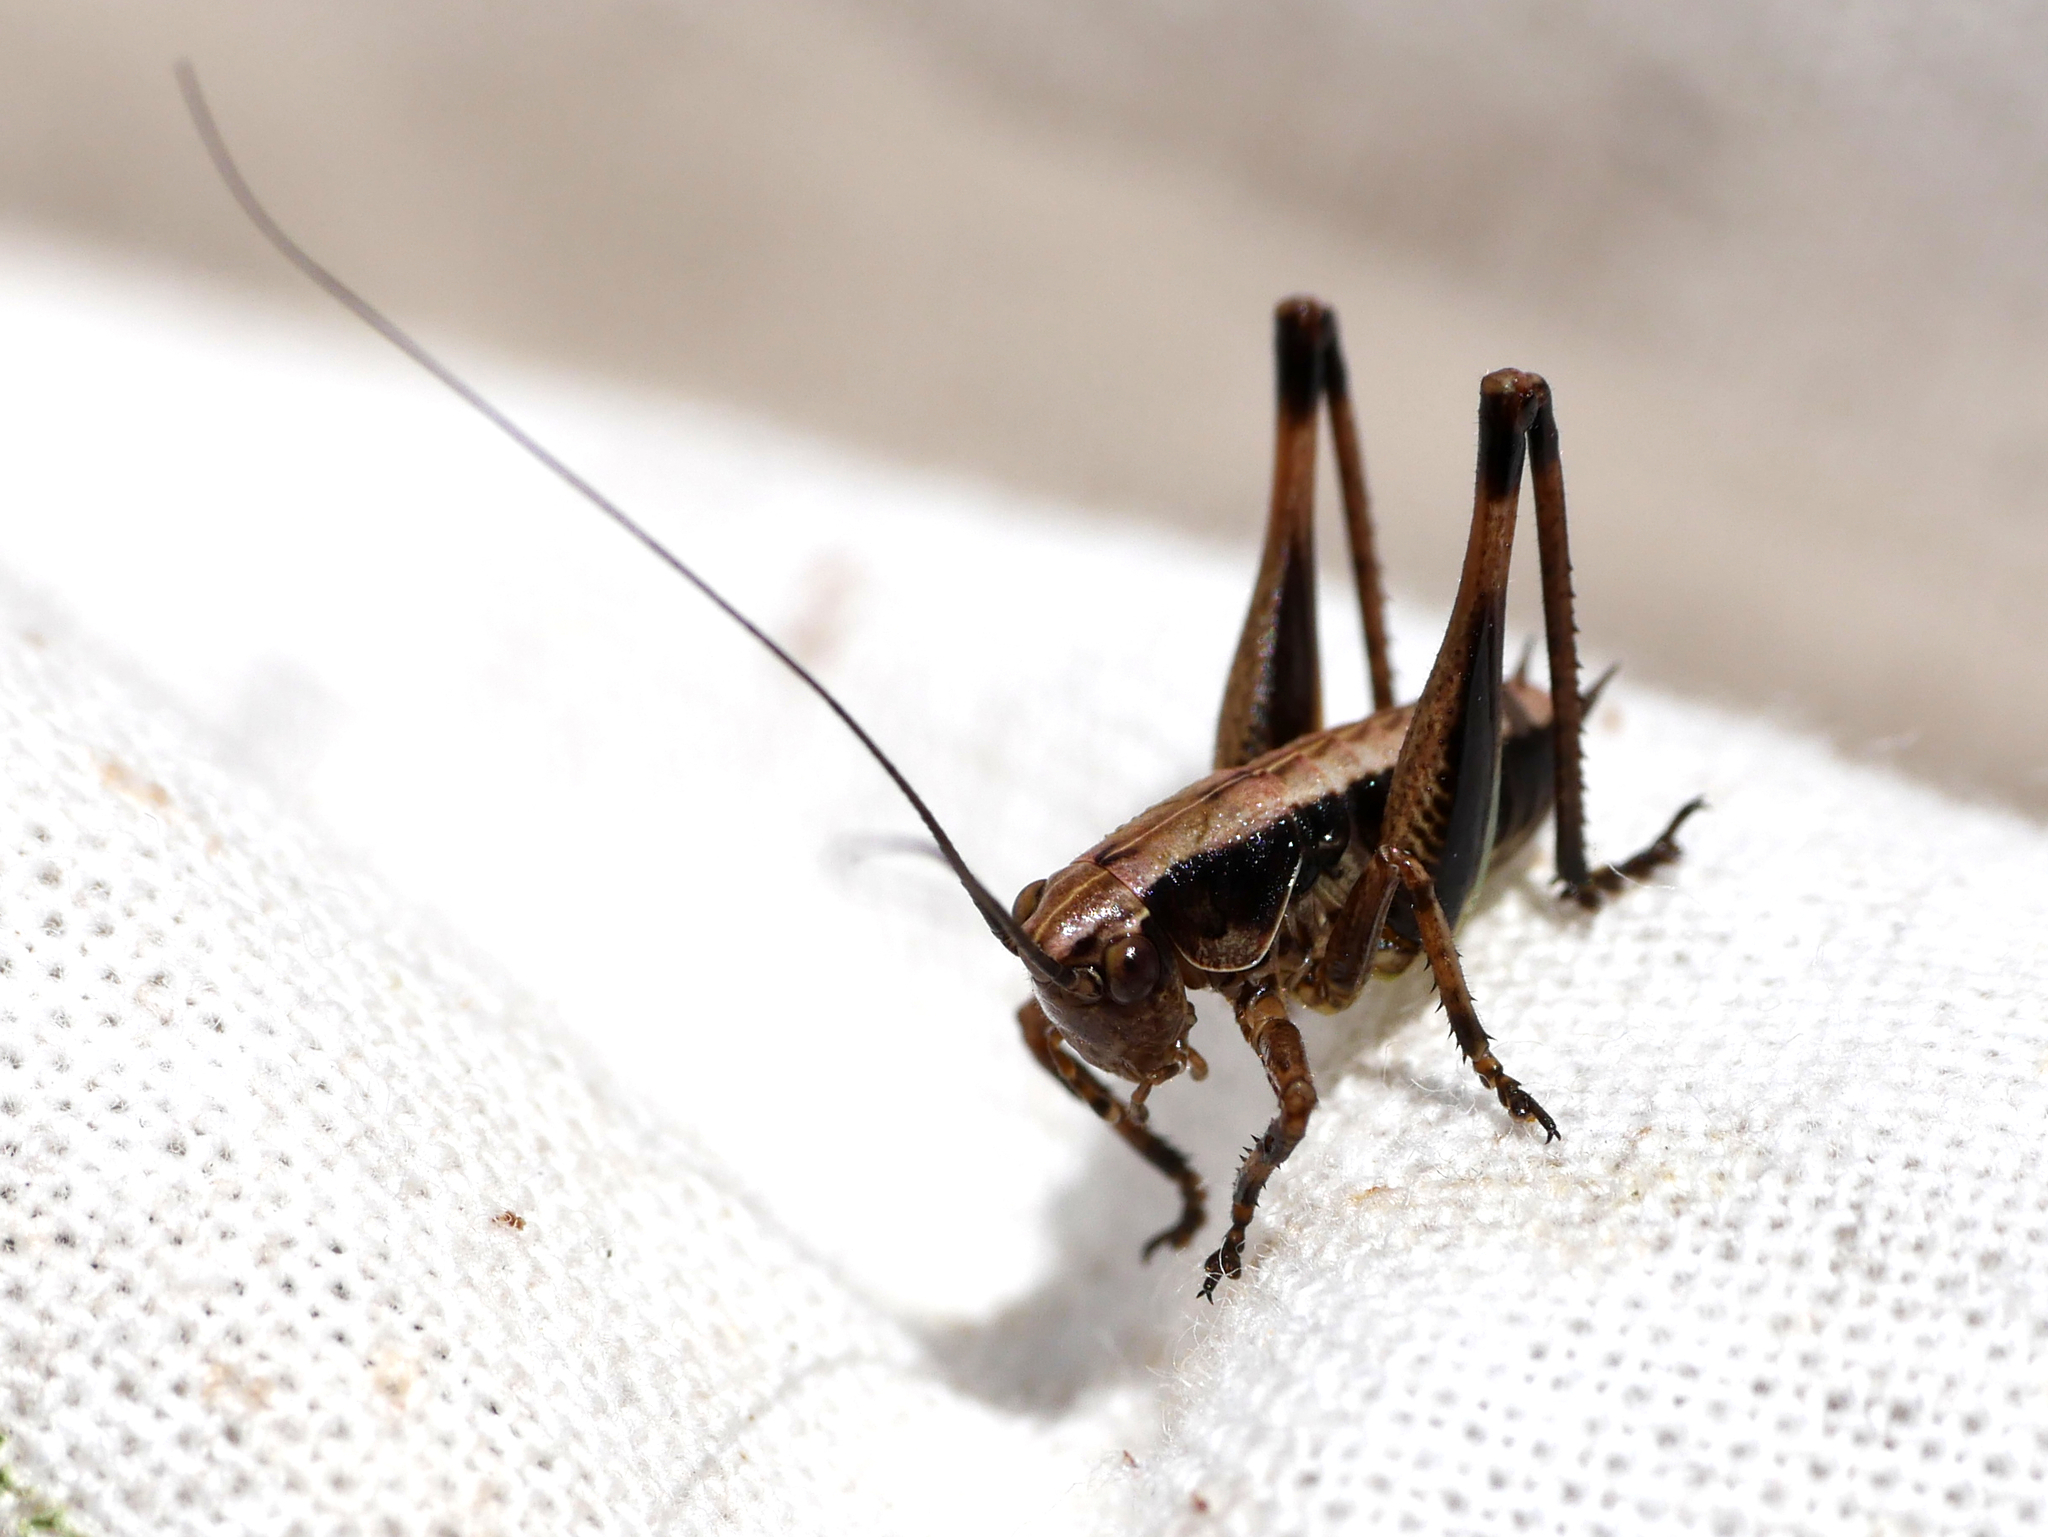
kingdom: Animalia
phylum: Arthropoda
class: Insecta
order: Orthoptera
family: Tettigoniidae
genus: Pholidoptera
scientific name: Pholidoptera griseoaptera
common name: Dark bush-cricket
